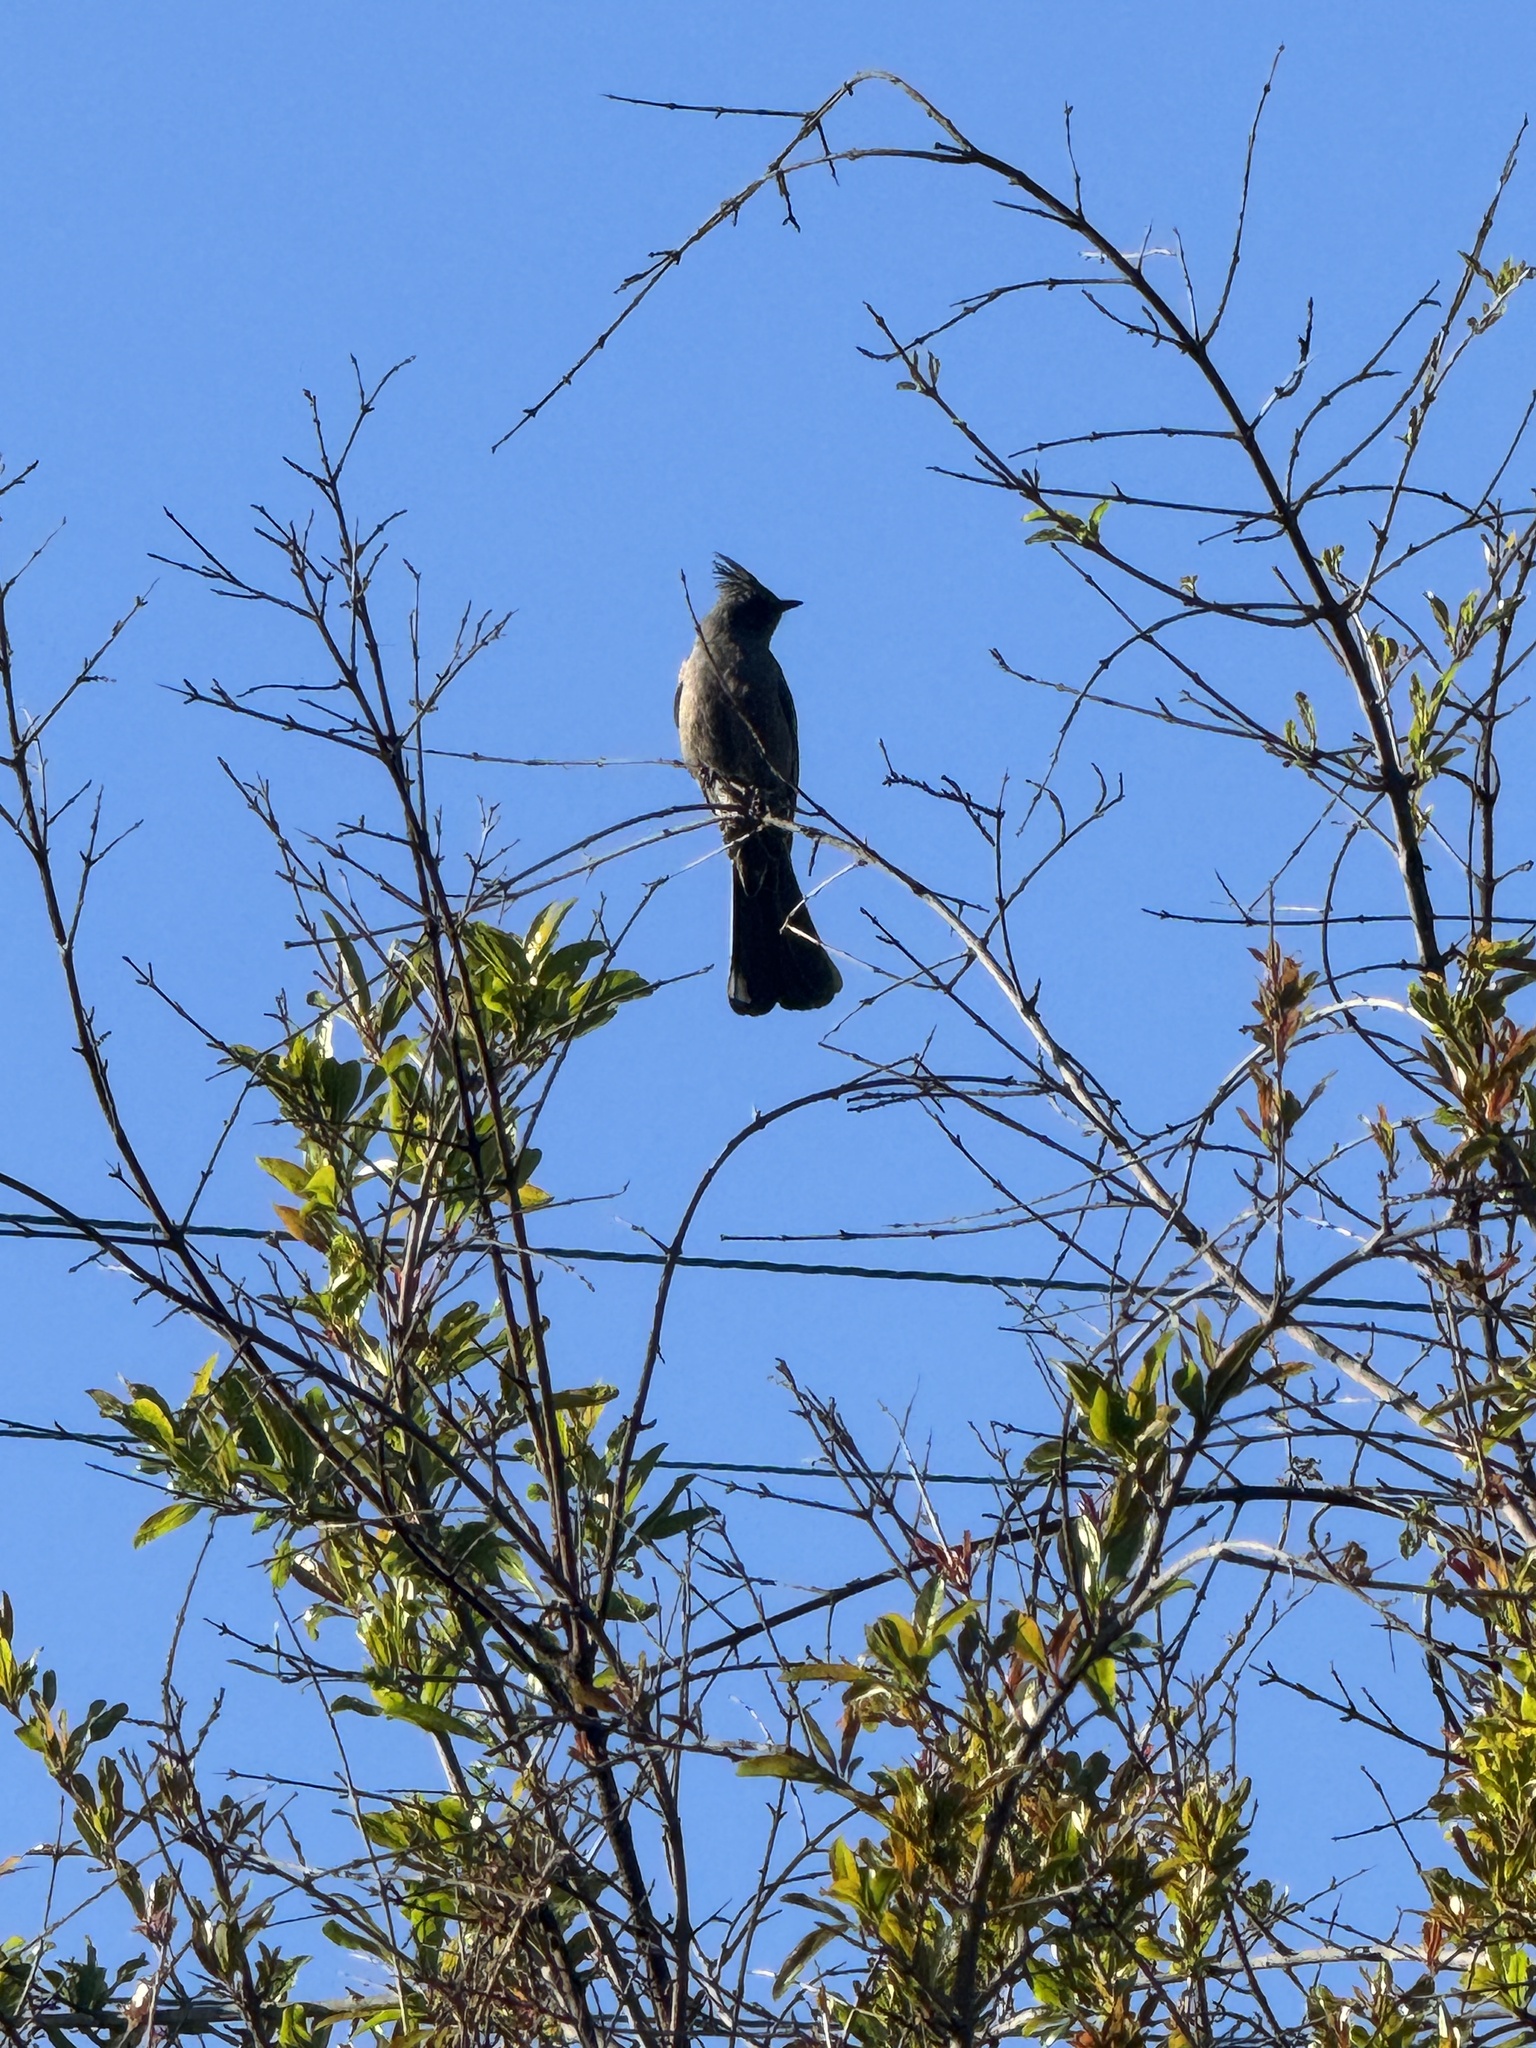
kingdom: Animalia
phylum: Chordata
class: Aves
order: Passeriformes
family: Ptilogonatidae
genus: Phainopepla
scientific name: Phainopepla nitens
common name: Phainopepla
